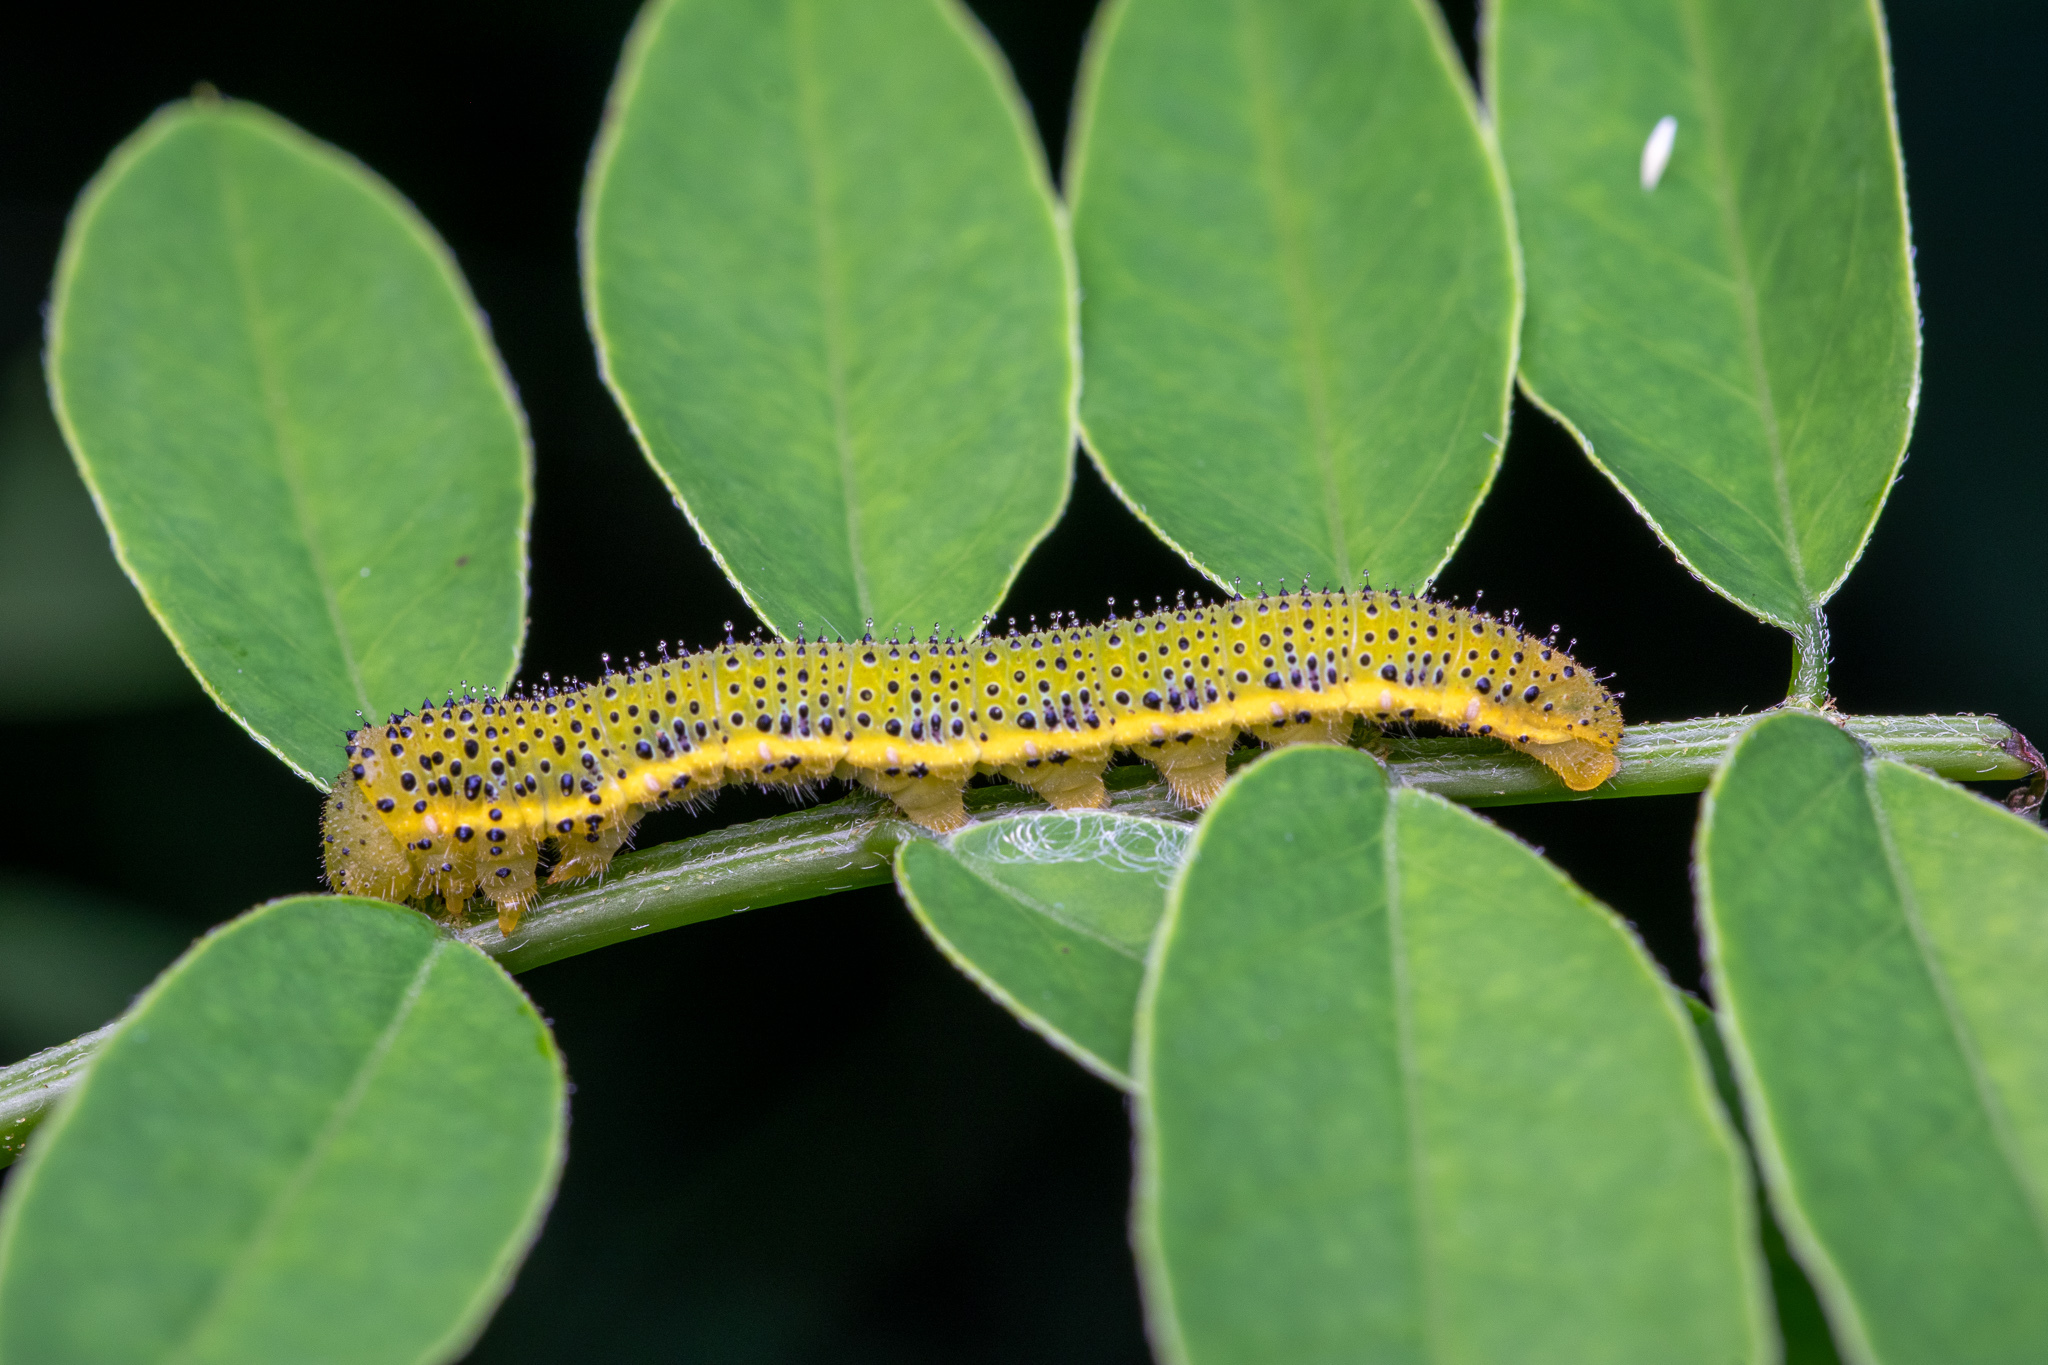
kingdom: Animalia
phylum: Arthropoda
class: Insecta
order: Lepidoptera
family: Pieridae
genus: Phoebis
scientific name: Phoebis sennae
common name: Cloudless sulphur
